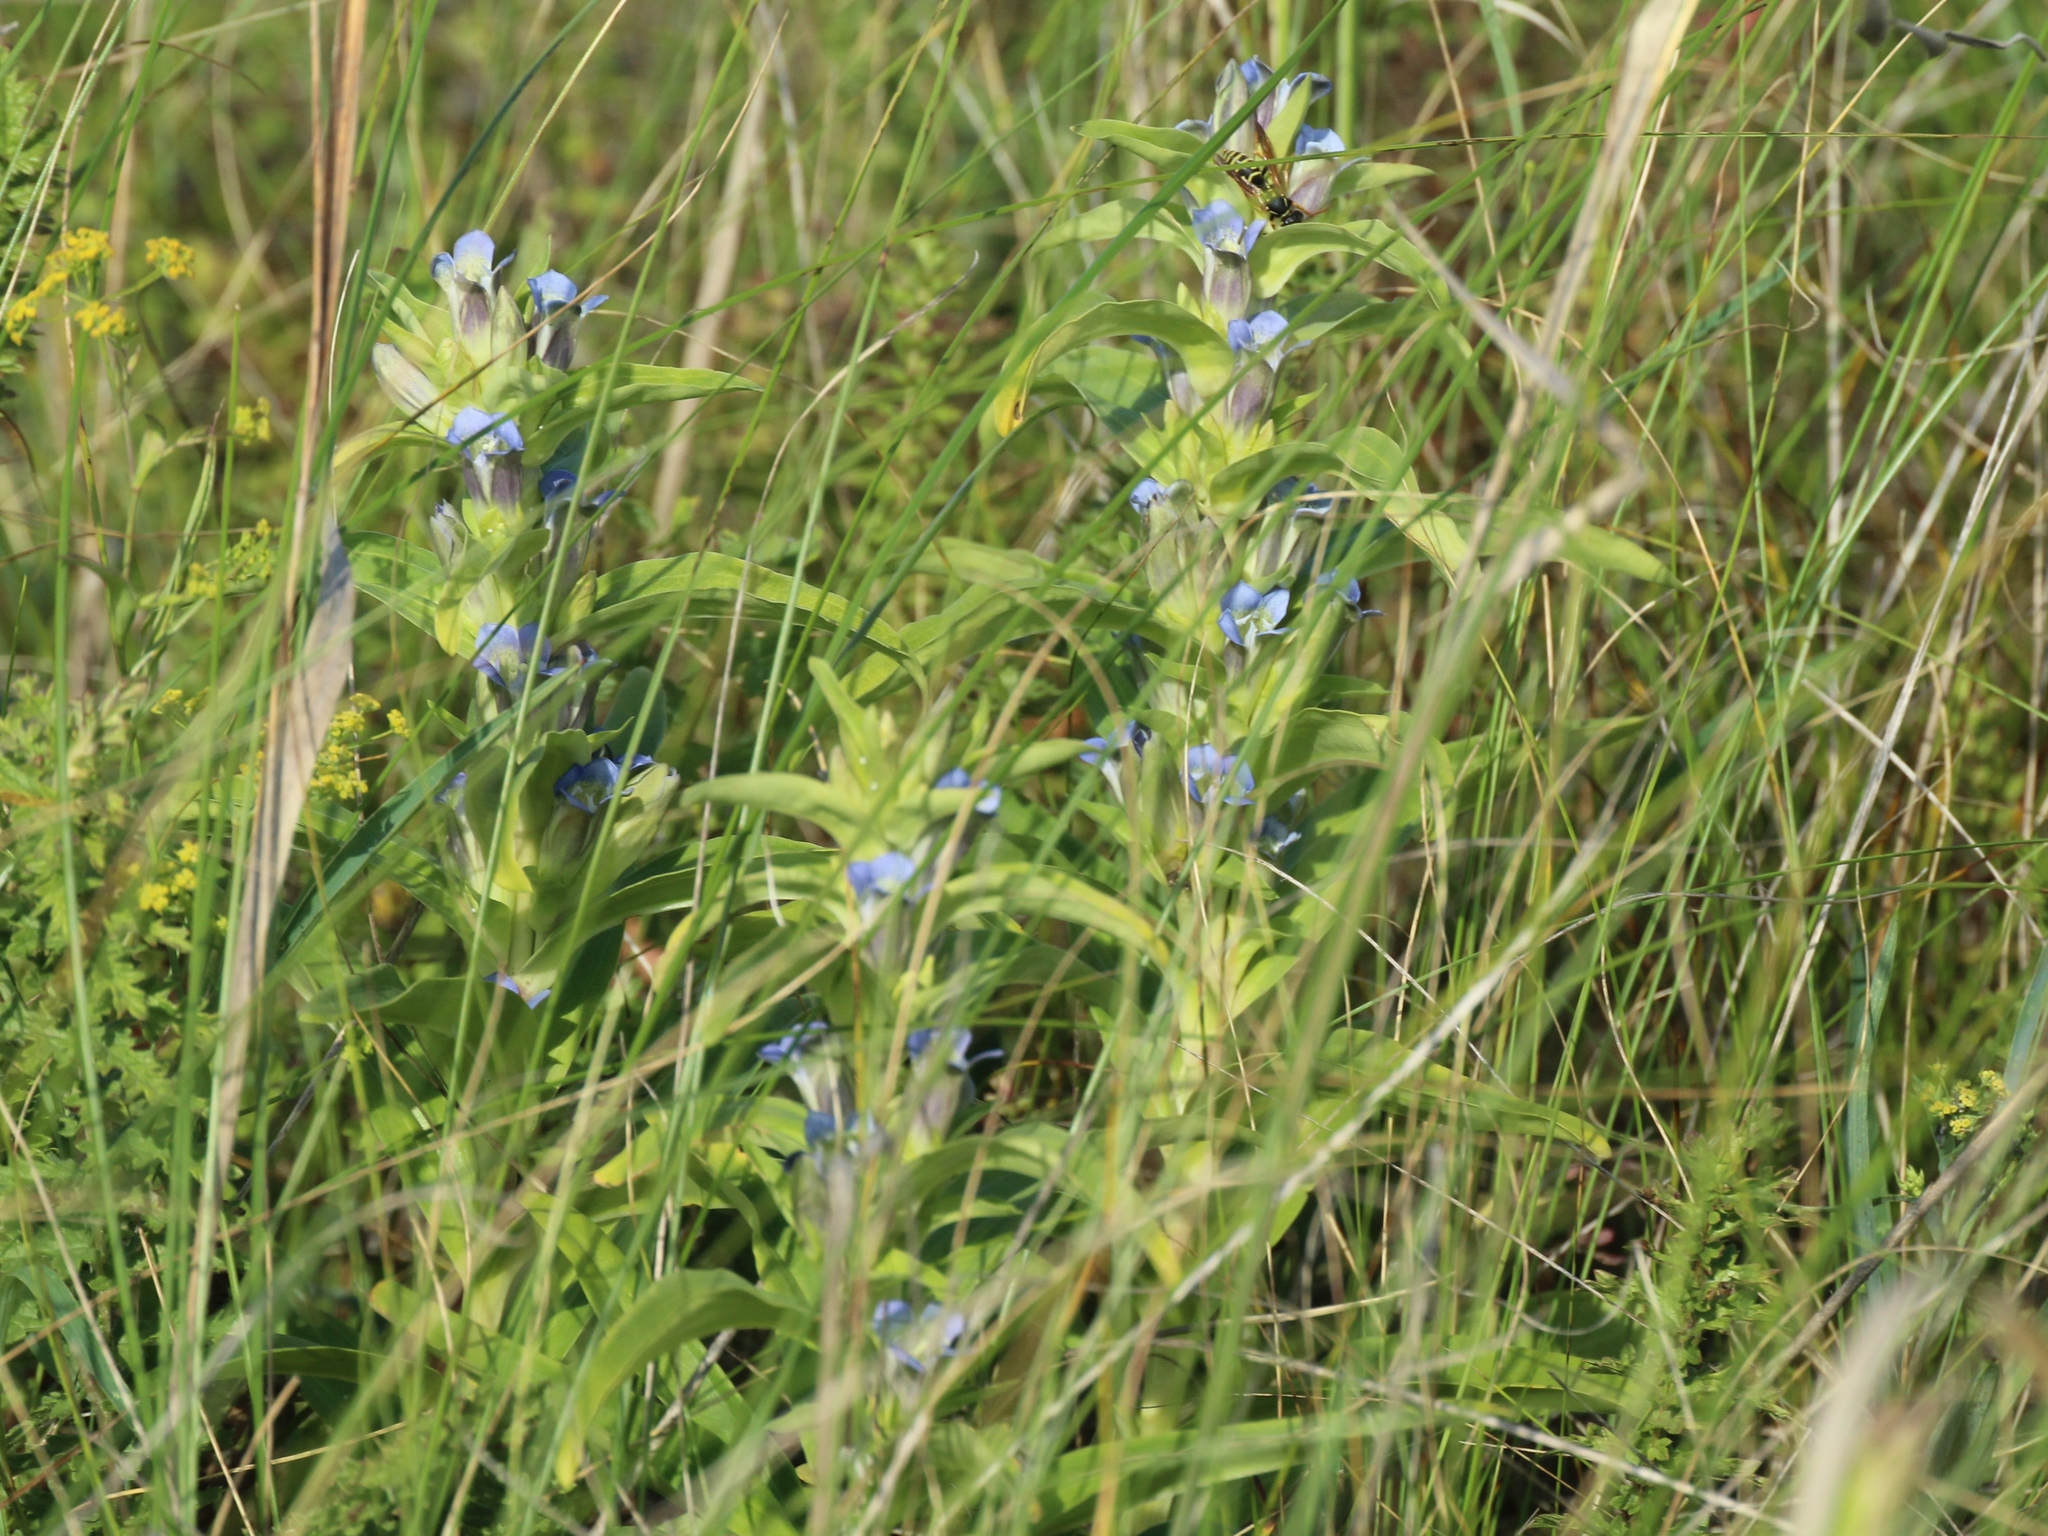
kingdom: Plantae
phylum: Tracheophyta
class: Magnoliopsida
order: Gentianales
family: Gentianaceae
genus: Gentiana
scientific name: Gentiana cruciata
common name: Cross gentian
